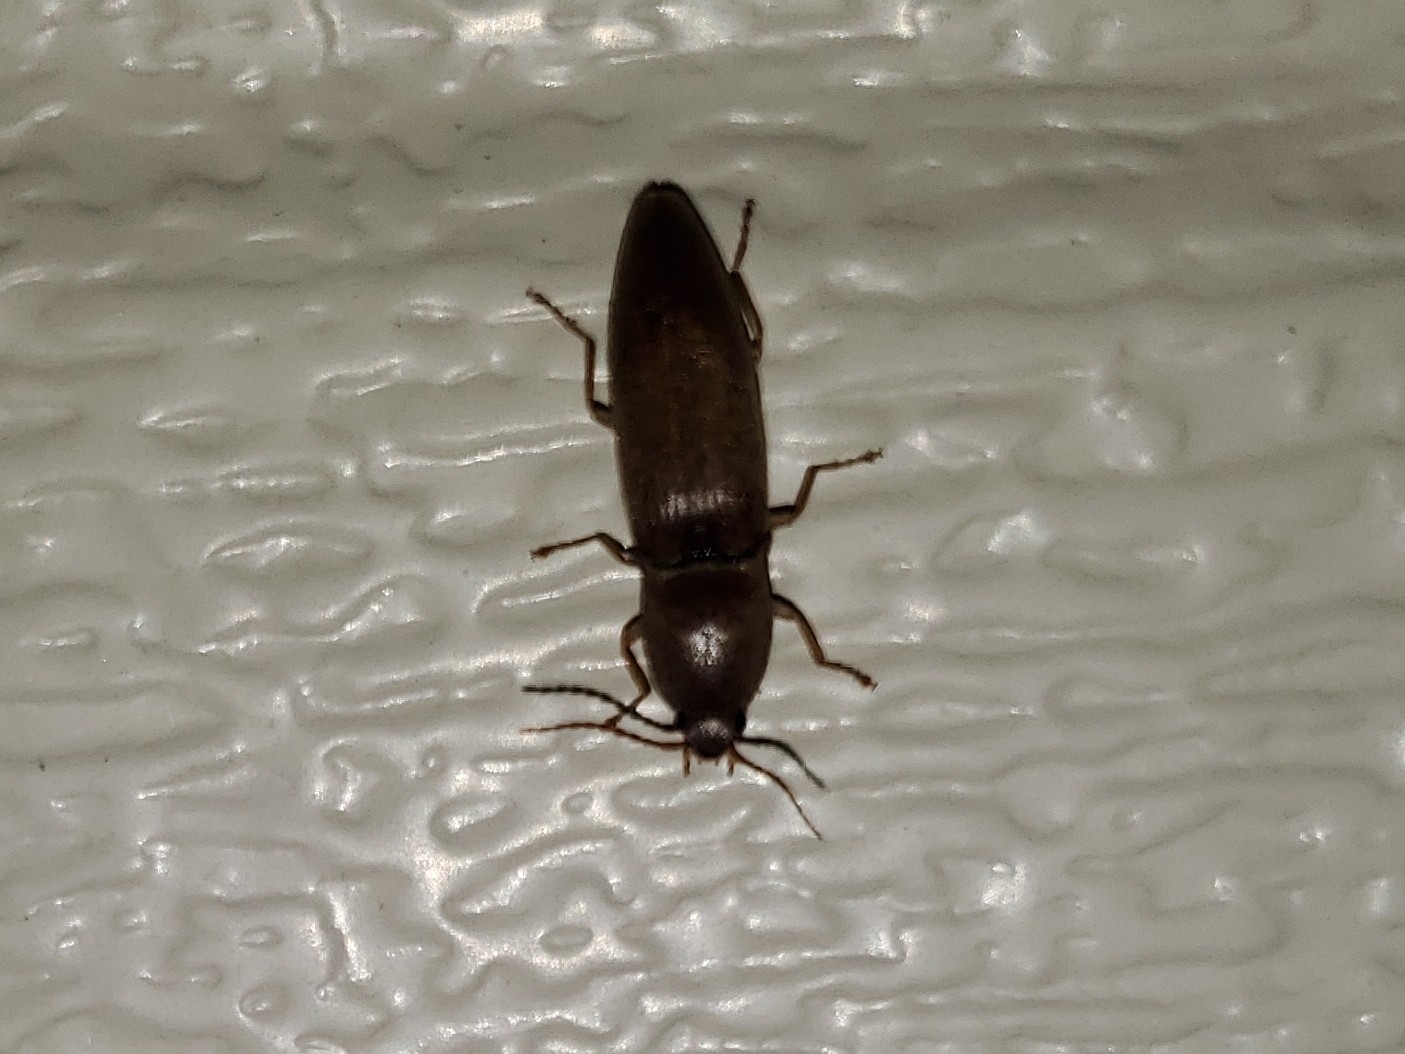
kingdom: Animalia
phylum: Arthropoda
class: Insecta
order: Coleoptera
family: Elateridae
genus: Monocrepidius
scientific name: Monocrepidius lividus
